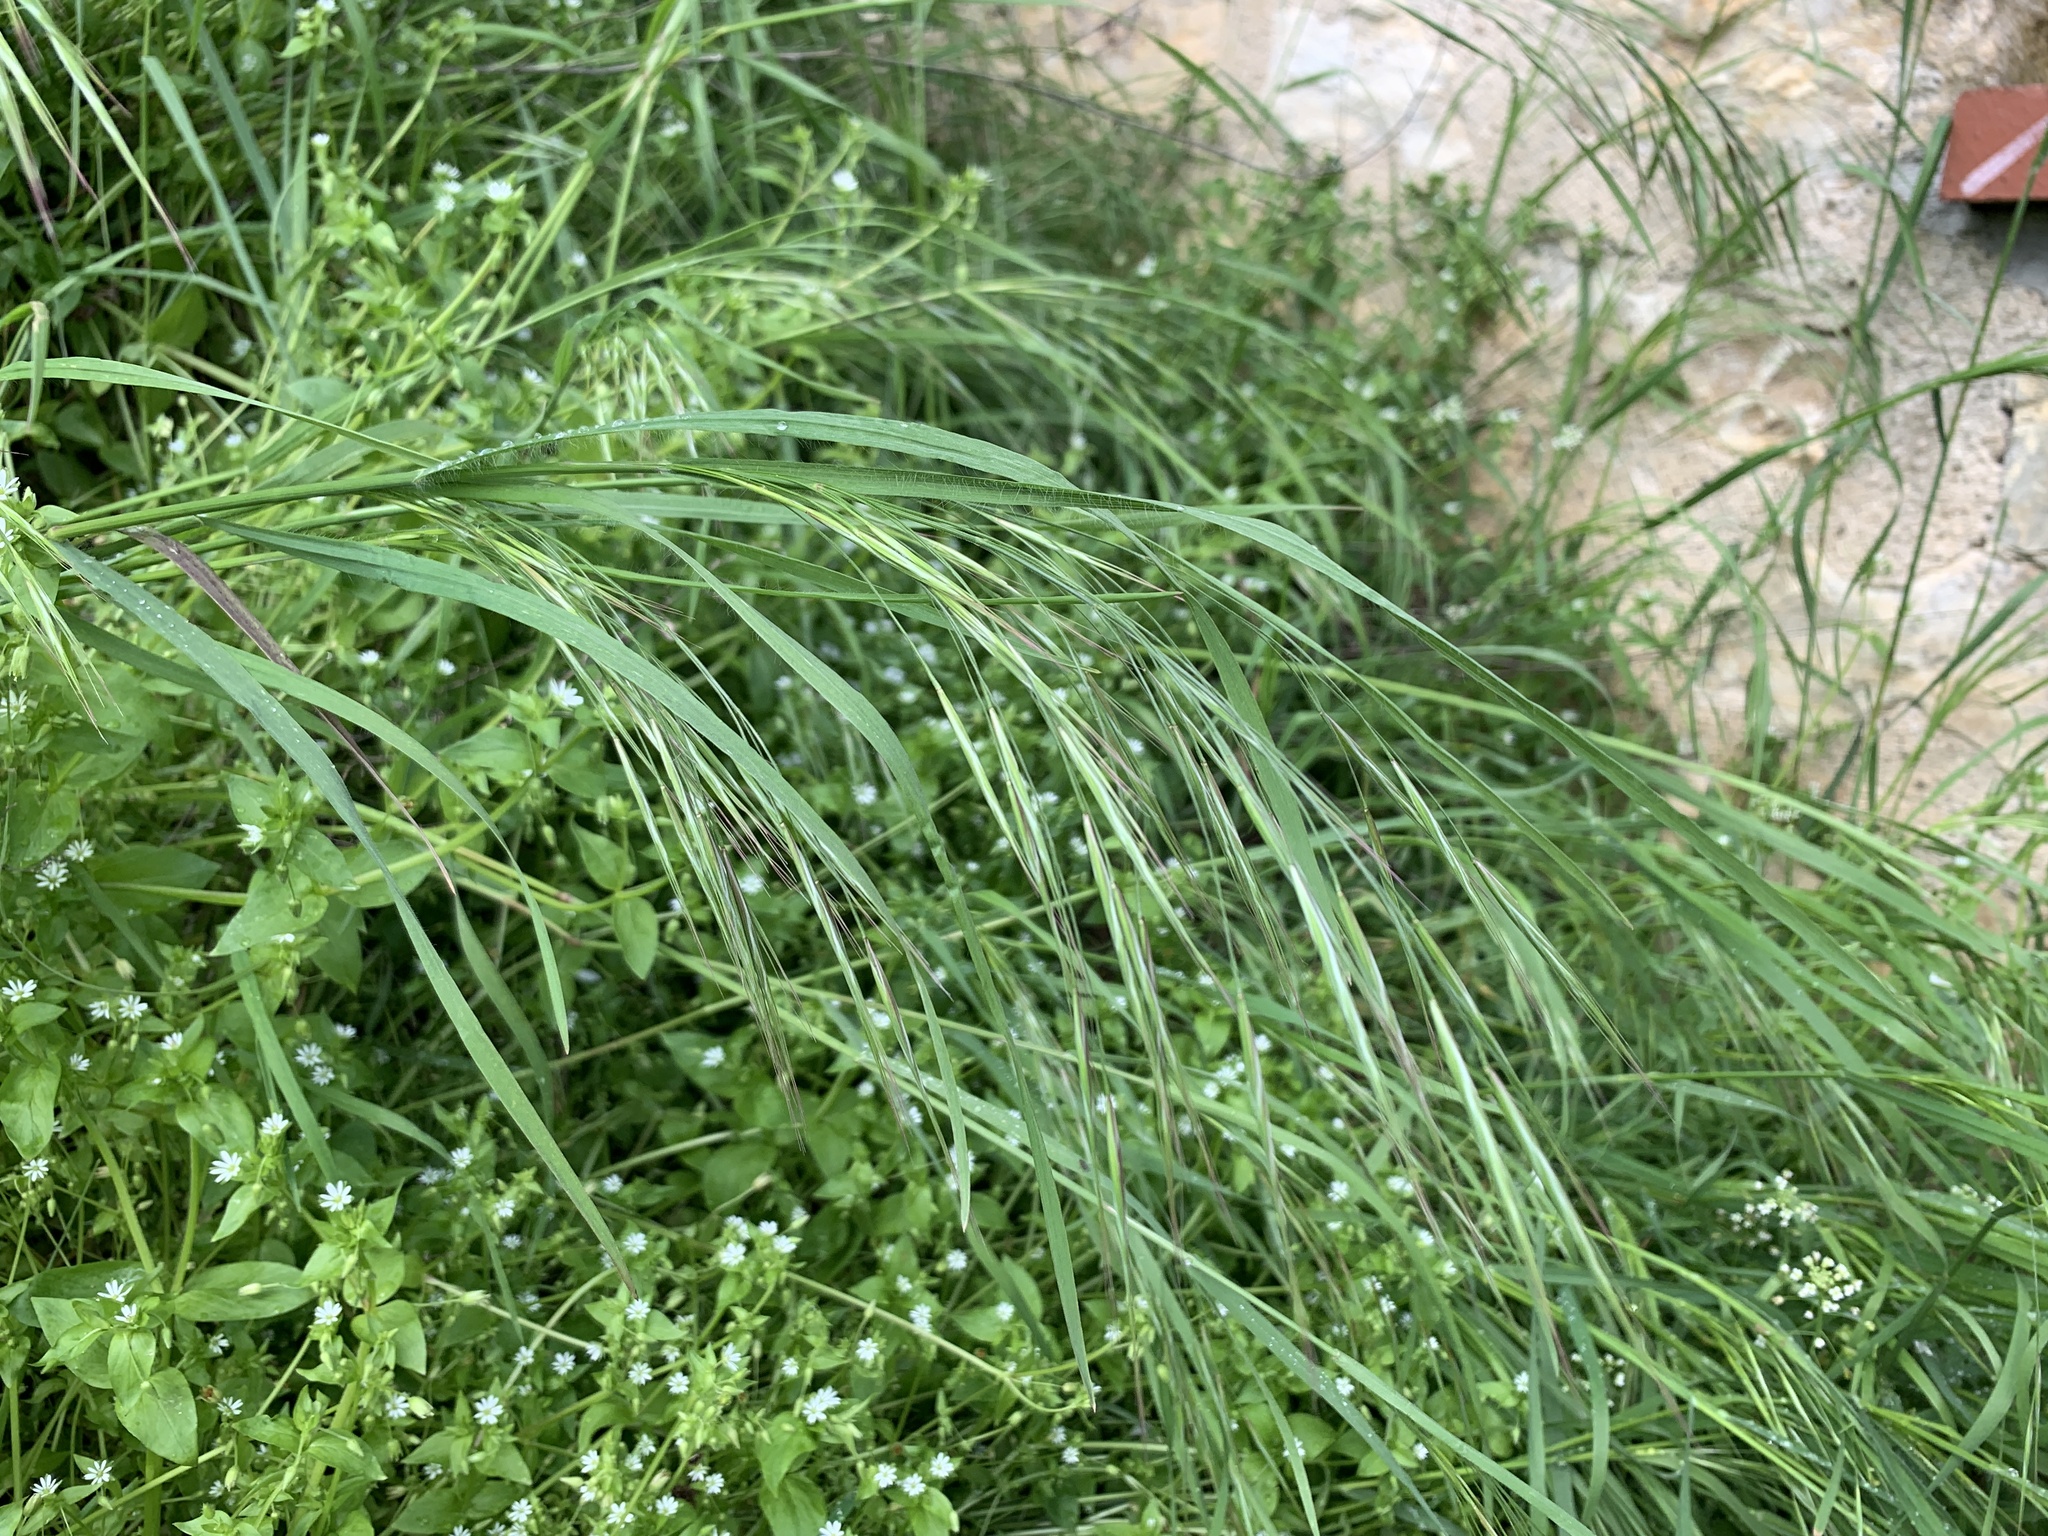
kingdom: Plantae
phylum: Tracheophyta
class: Liliopsida
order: Poales
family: Poaceae
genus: Bromus
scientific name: Bromus sterilis
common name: Poverty brome
